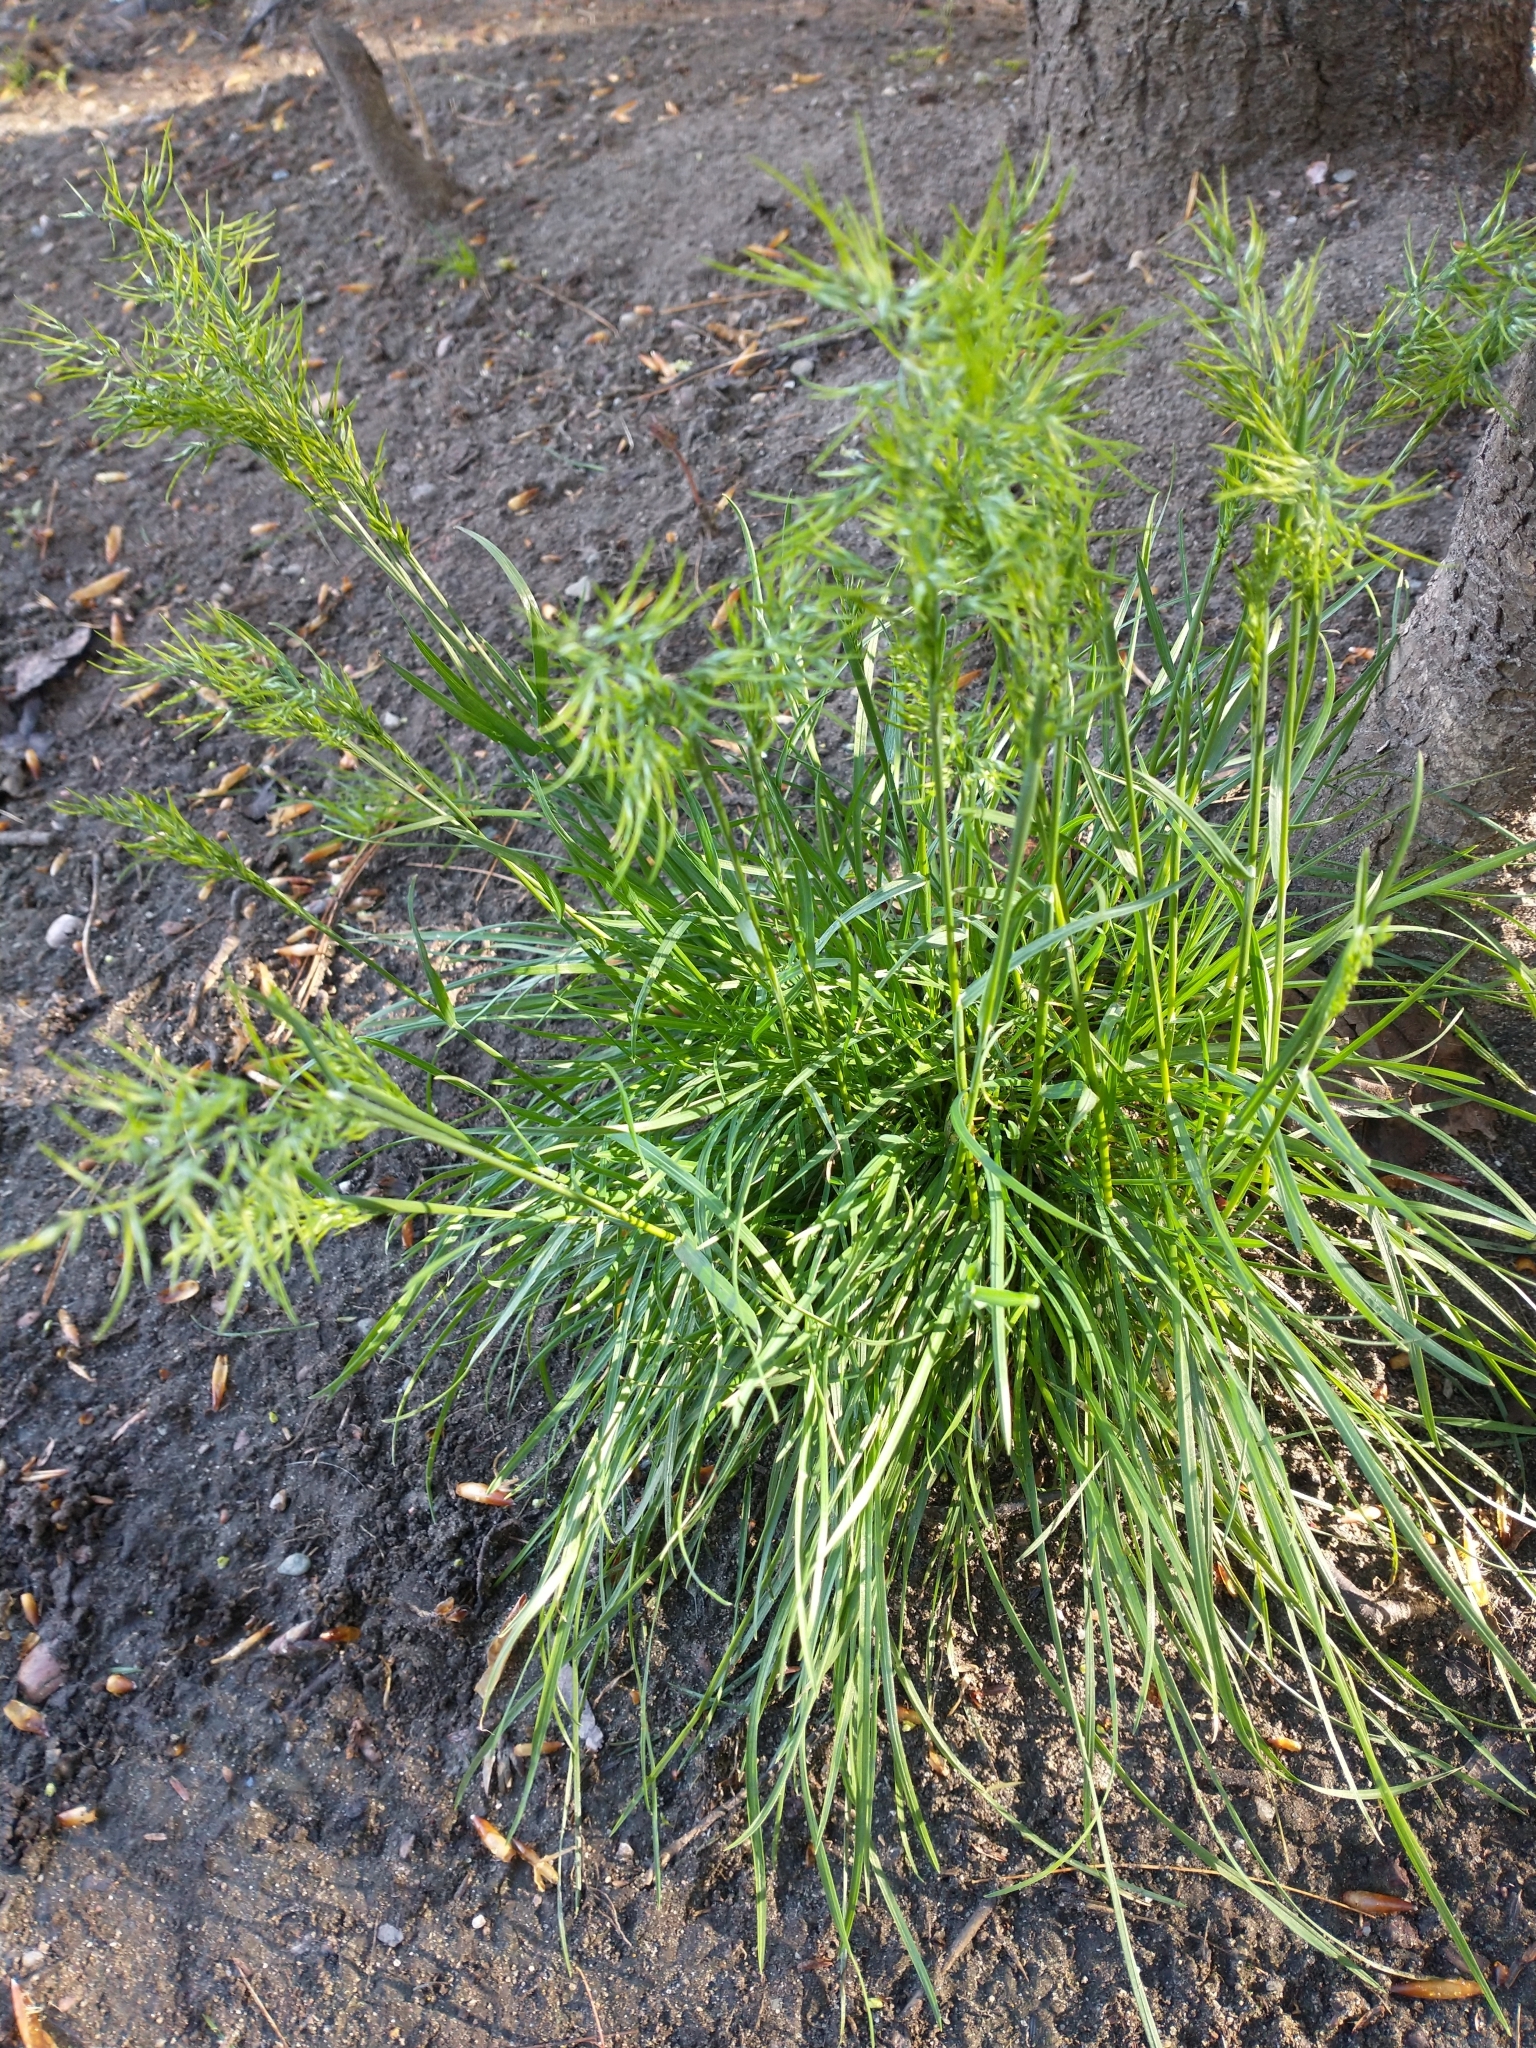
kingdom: Plantae
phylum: Tracheophyta
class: Liliopsida
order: Poales
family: Poaceae
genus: Poa
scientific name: Poa bulbosa
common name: Bulbous bluegrass
